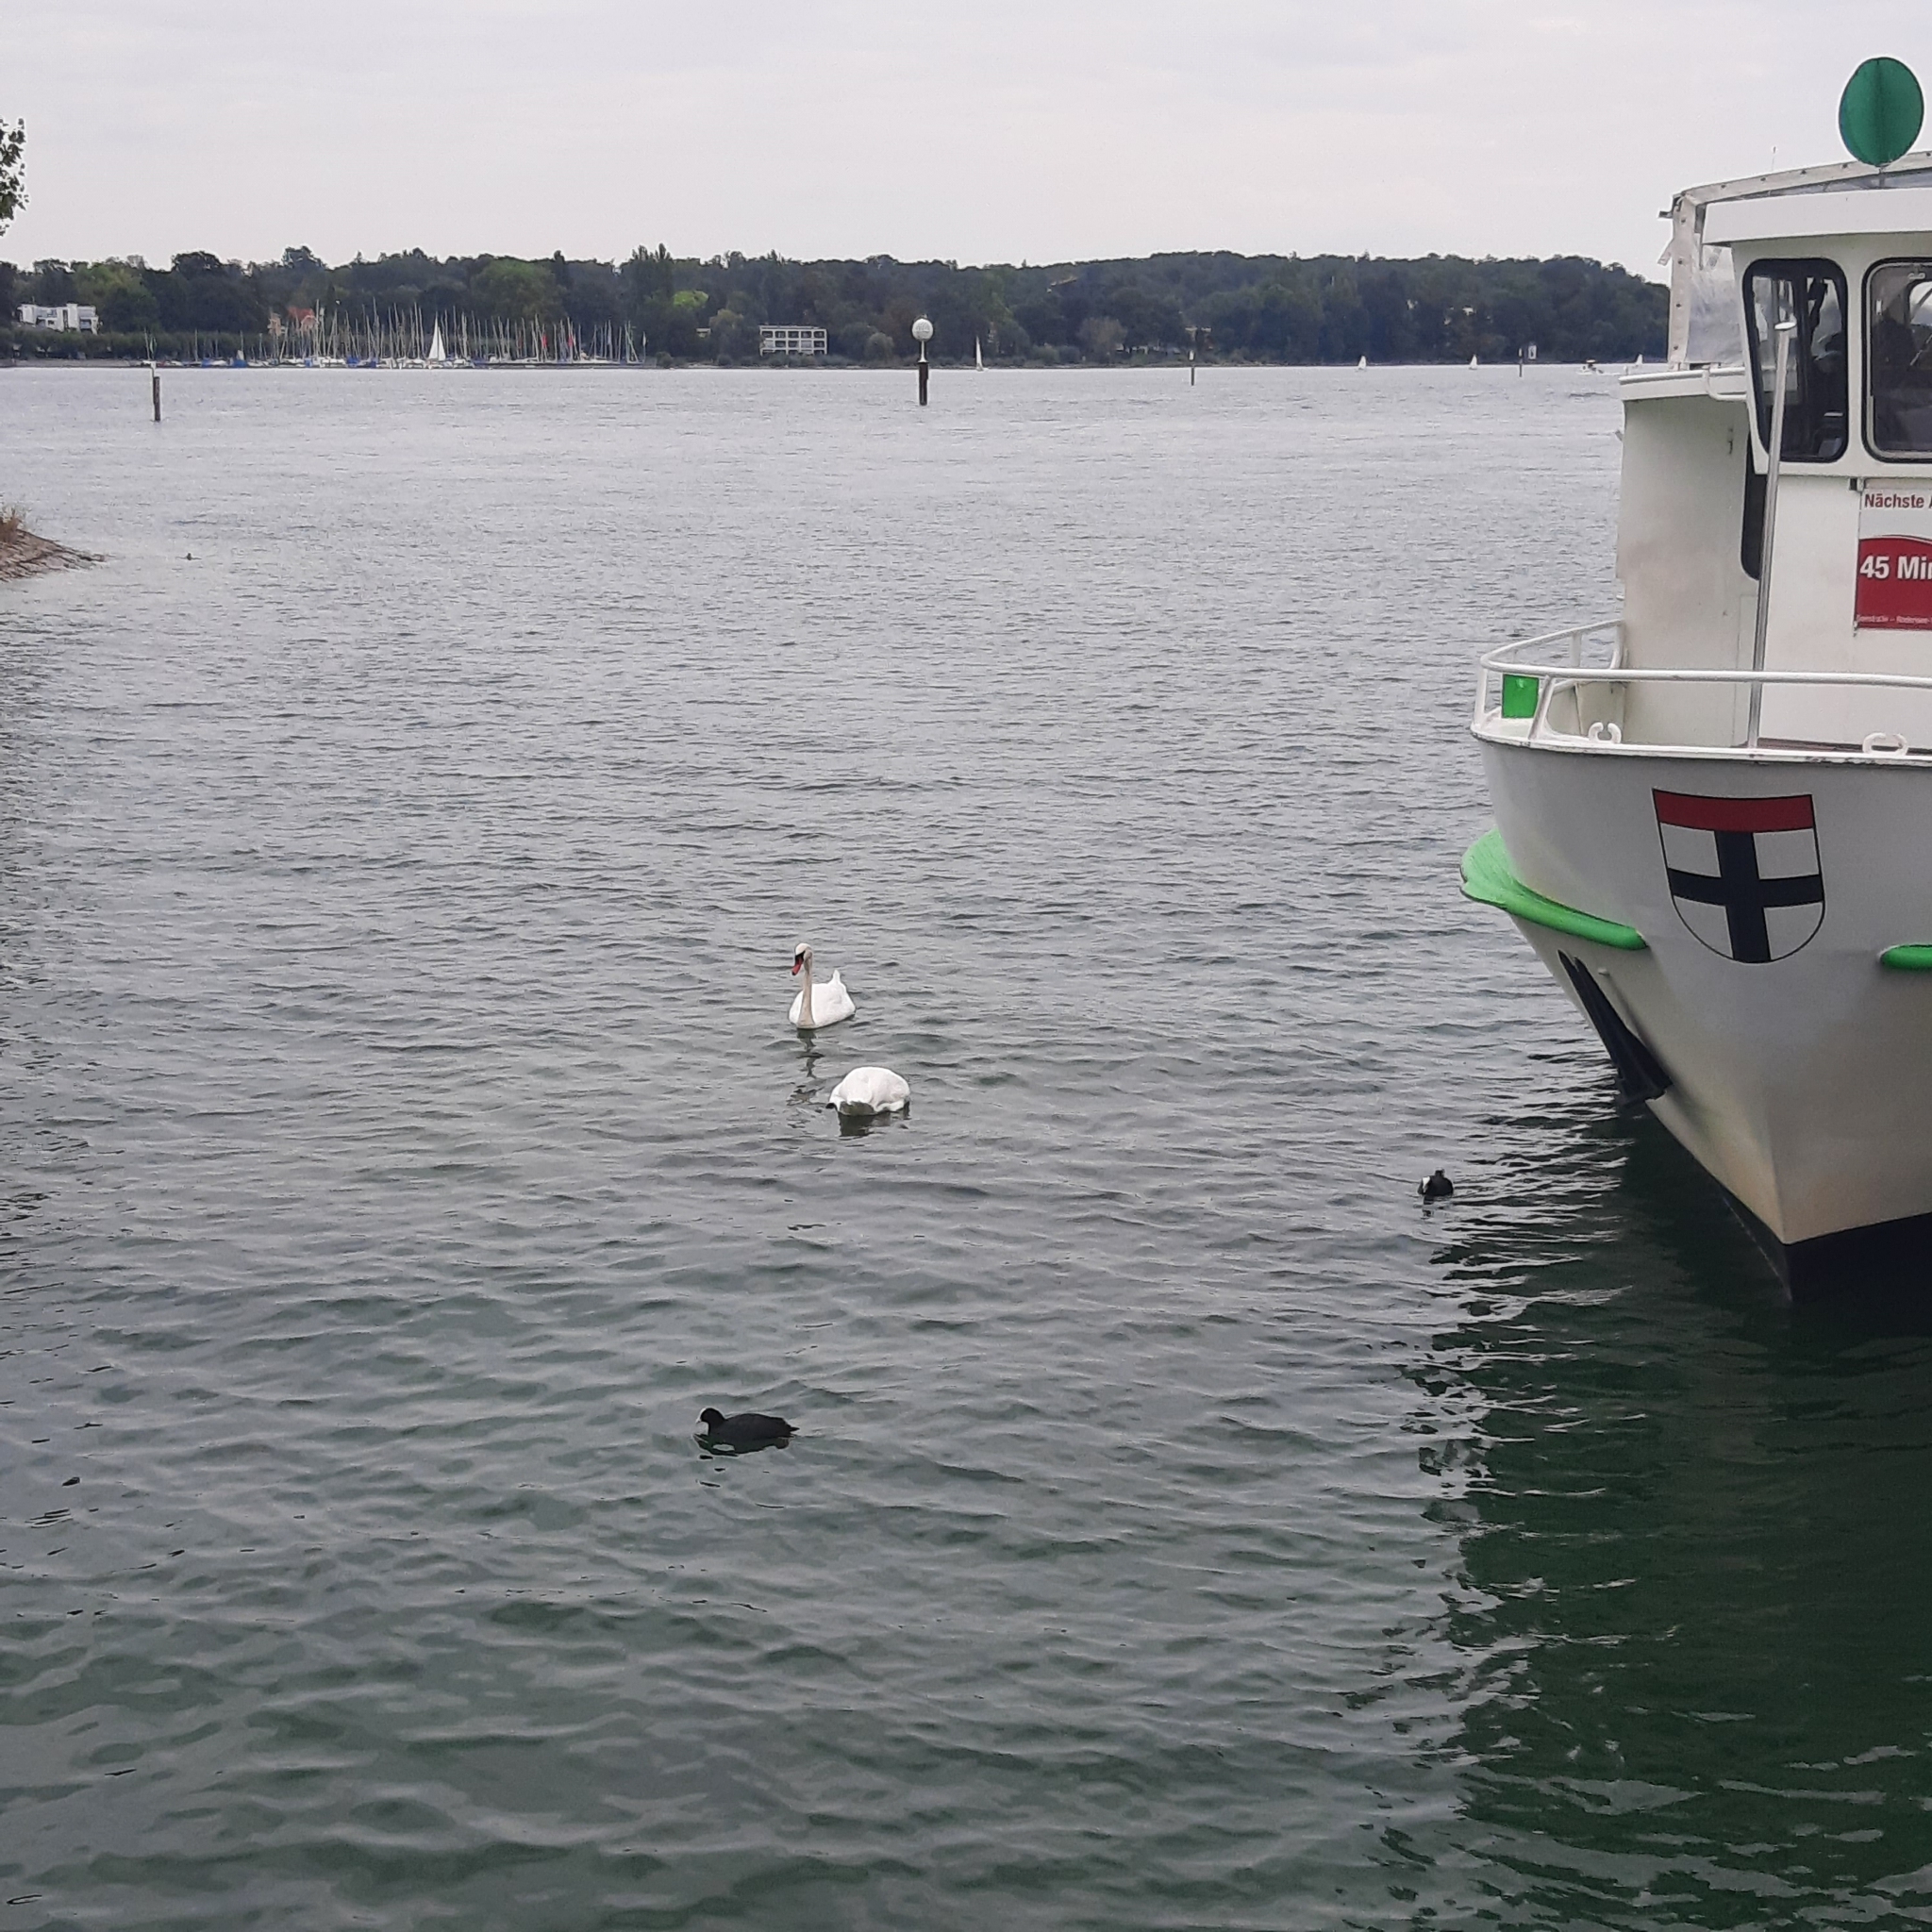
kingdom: Animalia
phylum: Chordata
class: Aves
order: Anseriformes
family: Anatidae
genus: Cygnus
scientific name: Cygnus olor
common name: Mute swan
